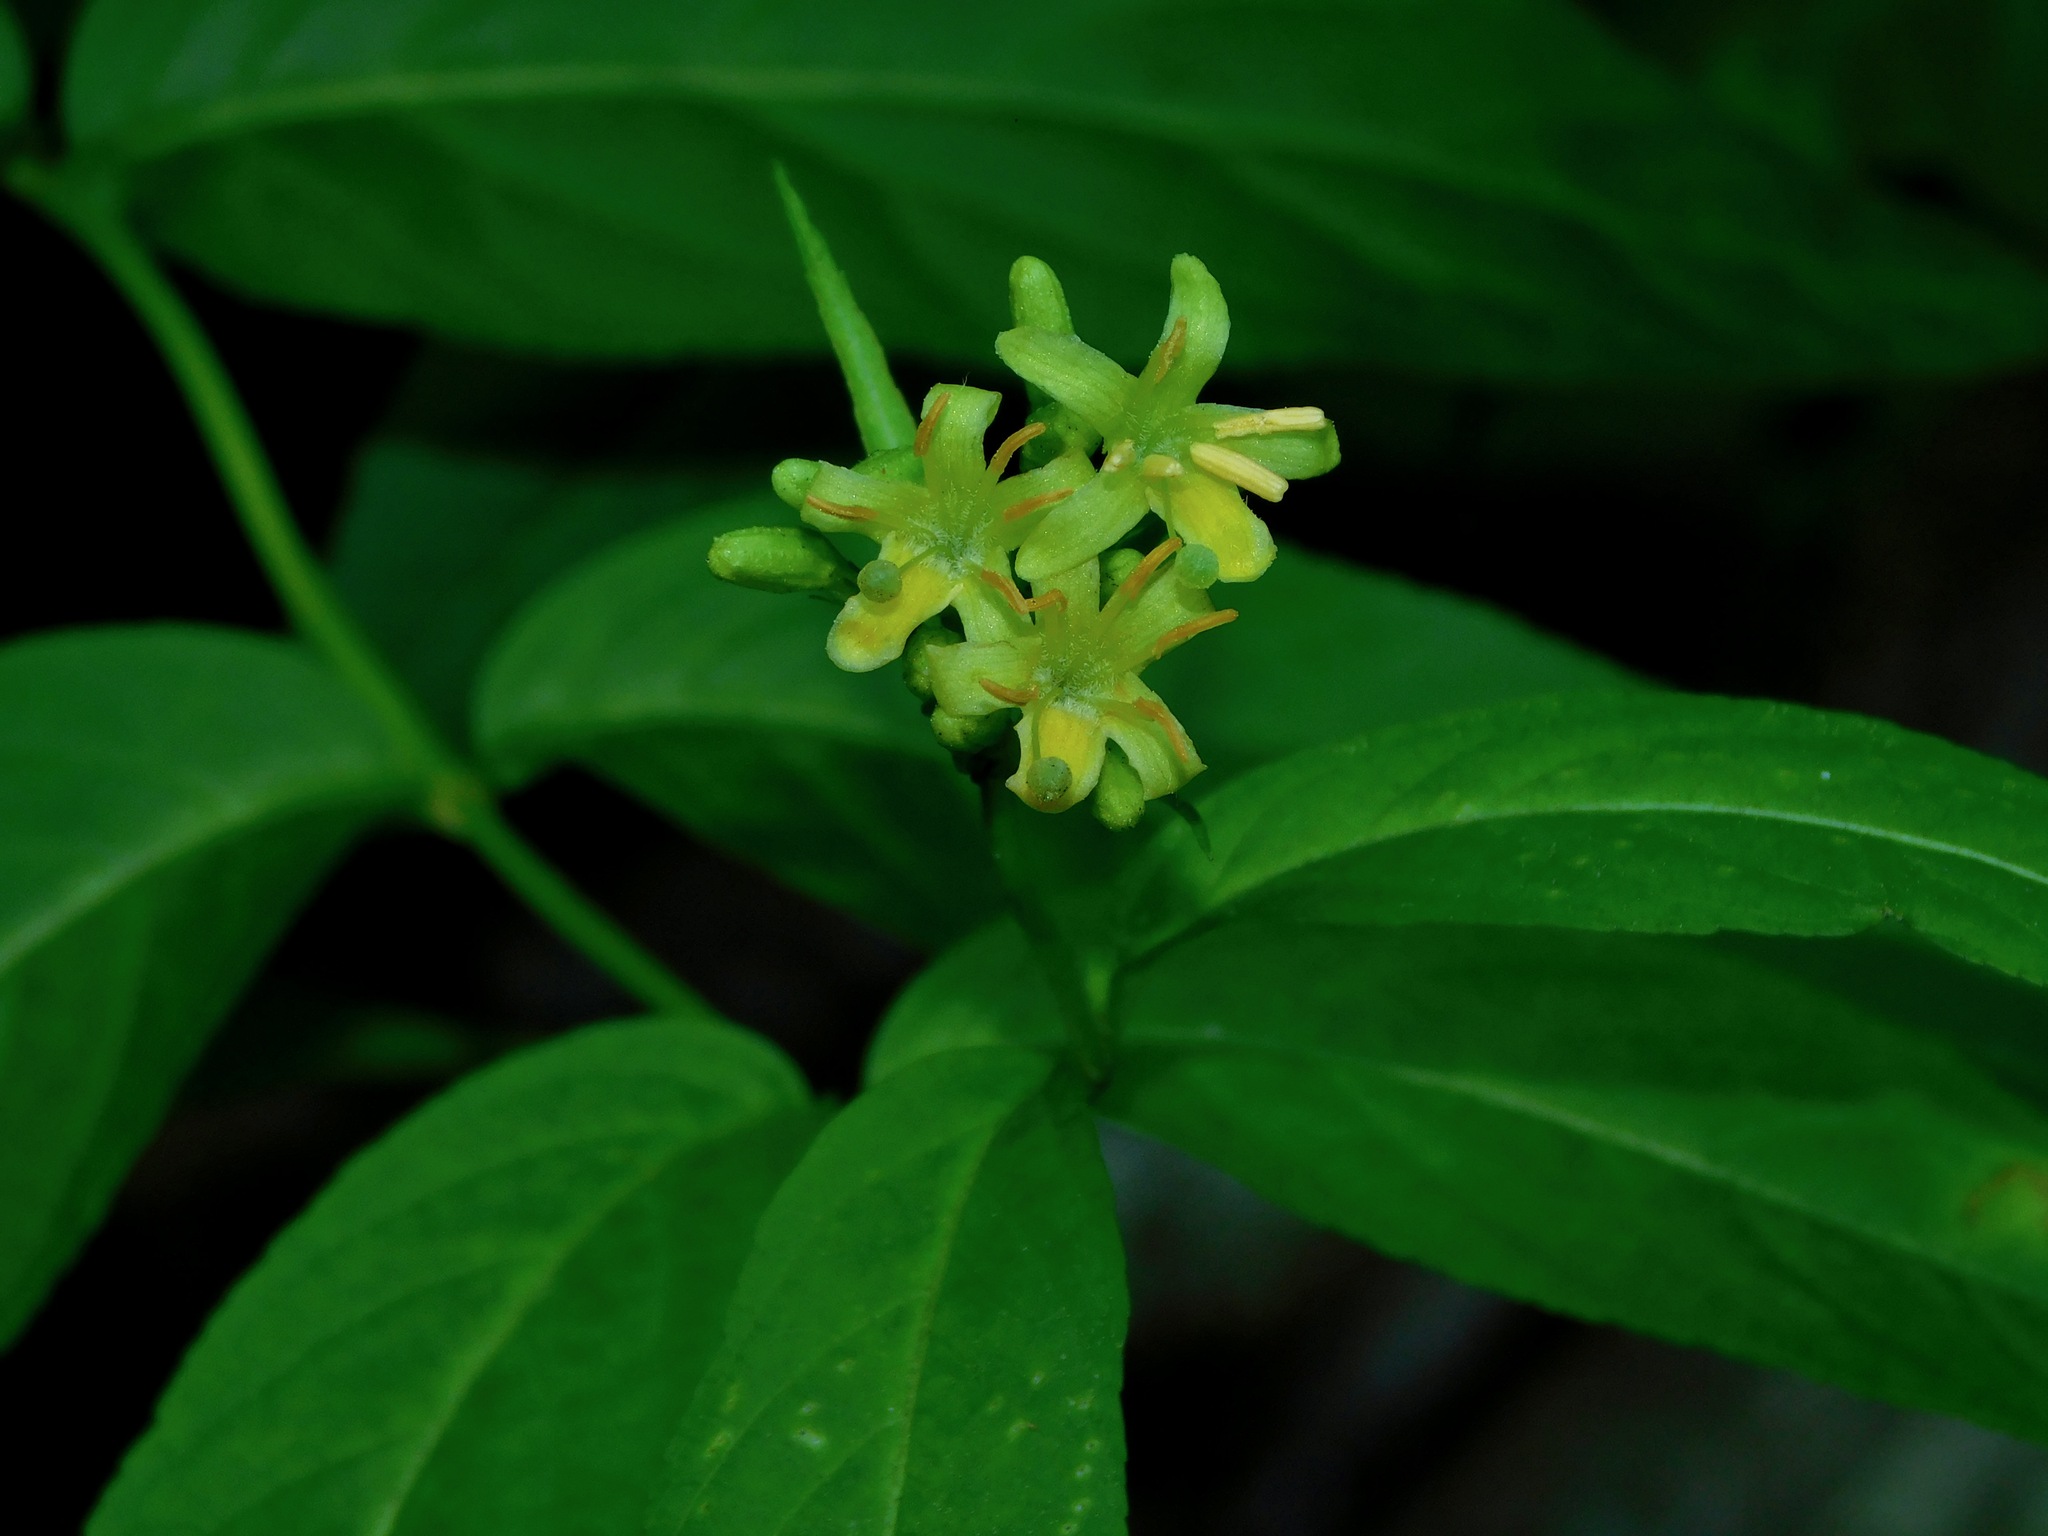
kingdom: Plantae
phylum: Tracheophyta
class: Magnoliopsida
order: Dipsacales
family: Caprifoliaceae
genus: Diervilla
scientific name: Diervilla sessilifolia
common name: Bush-honeysuckle
